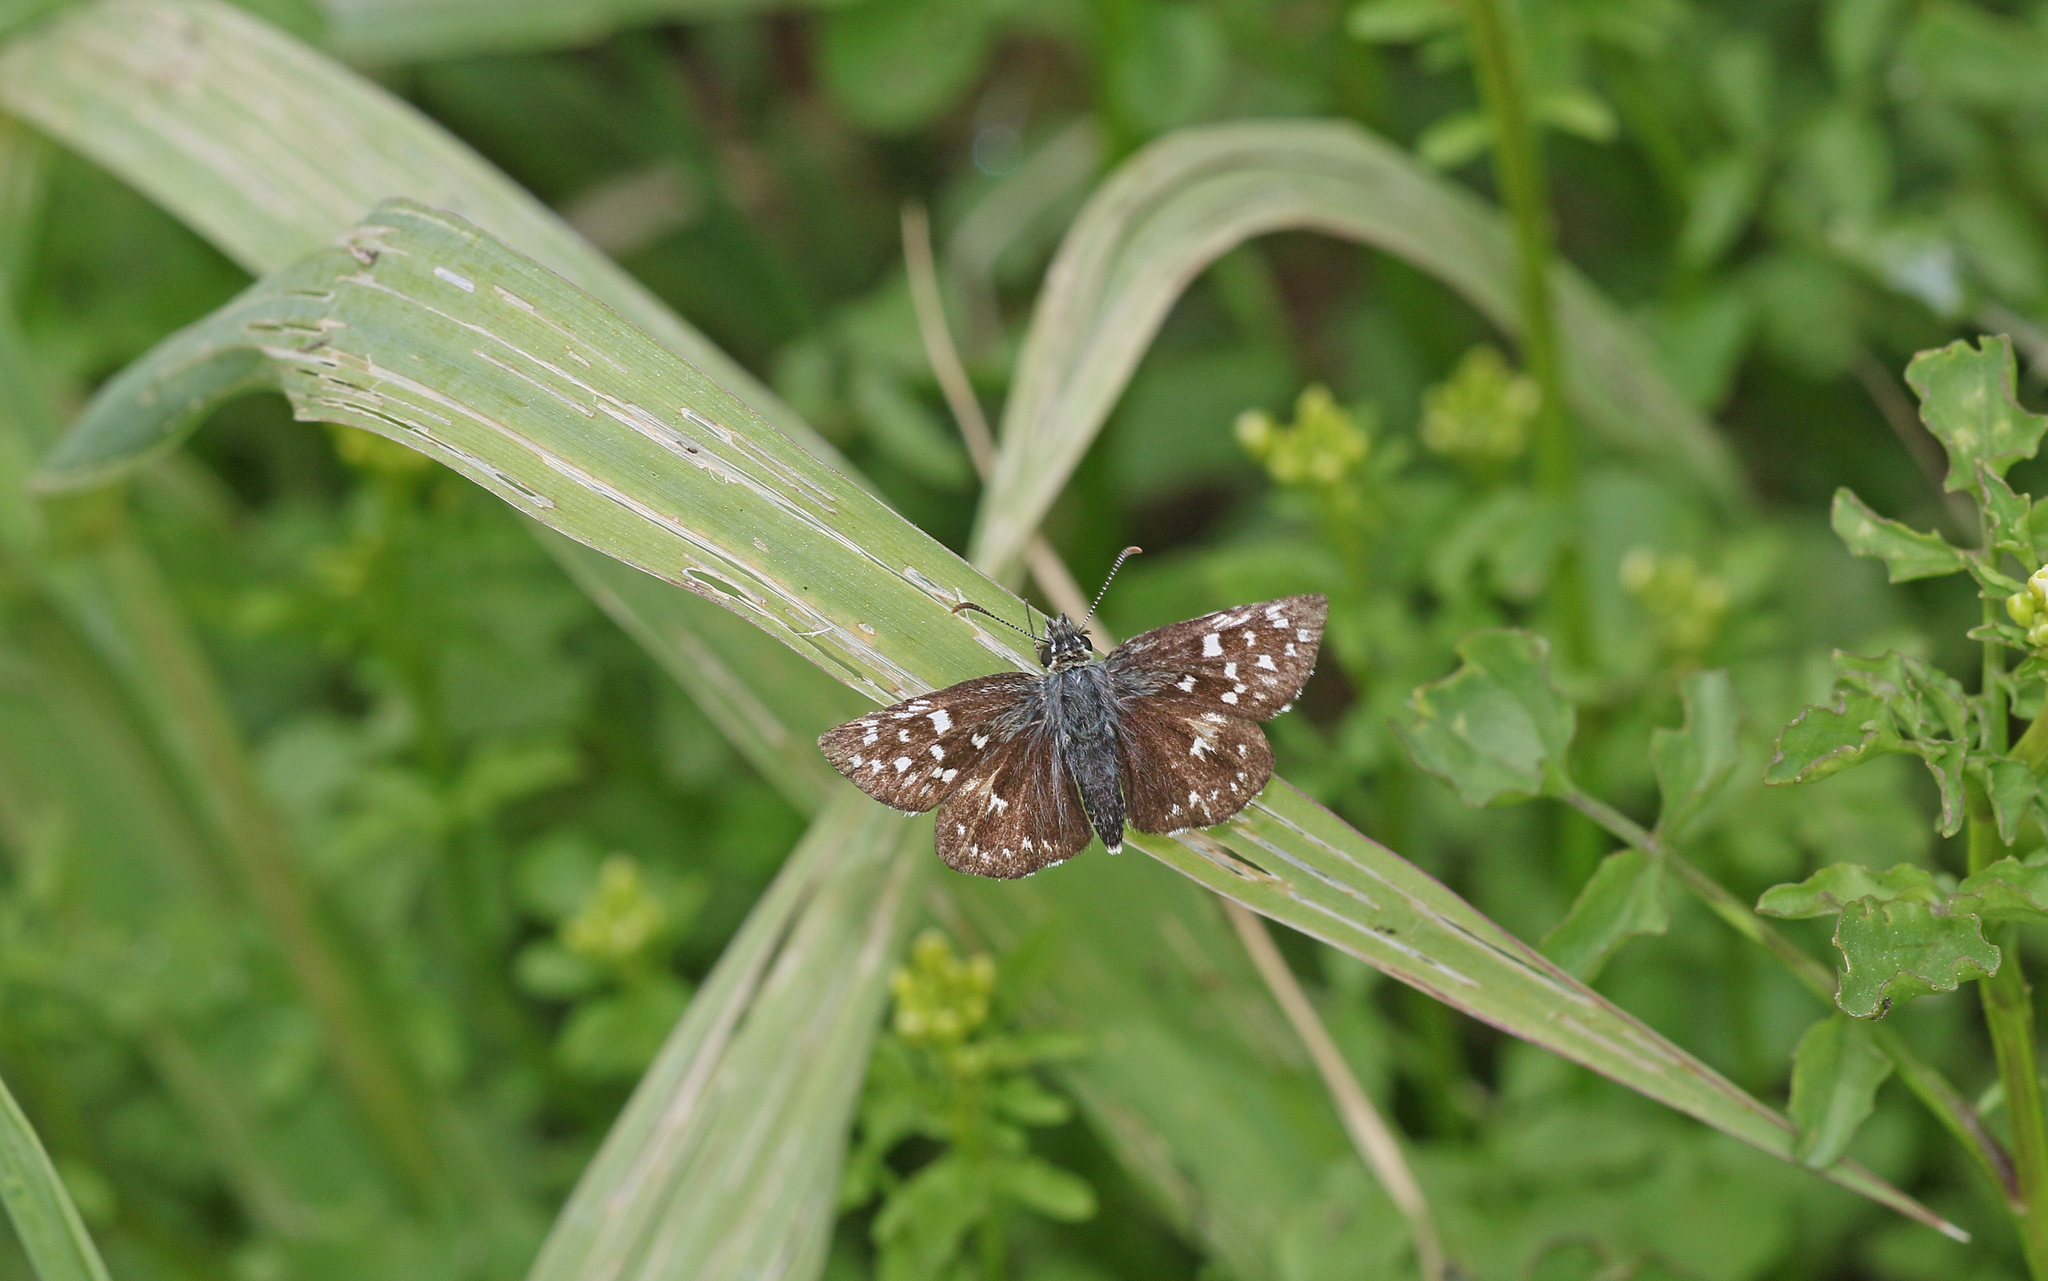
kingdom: Animalia
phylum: Arthropoda
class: Insecta
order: Lepidoptera
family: Hesperiidae
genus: Pyrgus
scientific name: Pyrgus malvae
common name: Grizzled skipper
